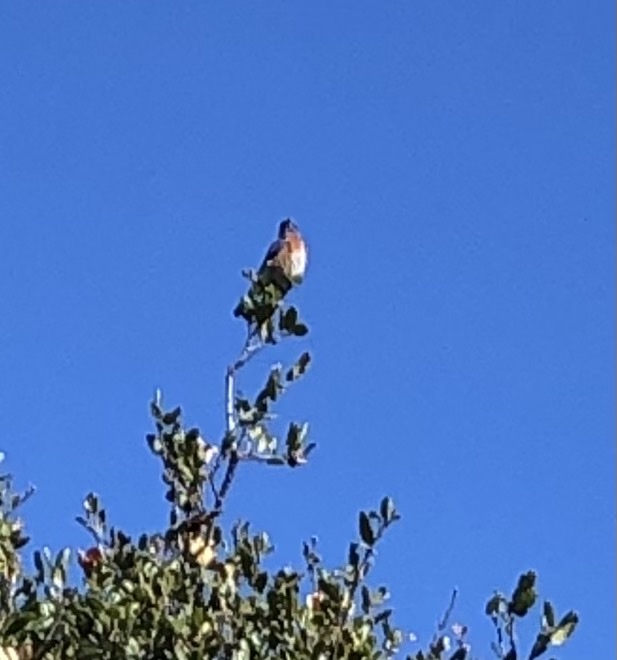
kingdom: Animalia
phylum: Chordata
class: Aves
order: Passeriformes
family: Turdidae
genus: Sialia
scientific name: Sialia mexicana
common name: Western bluebird
